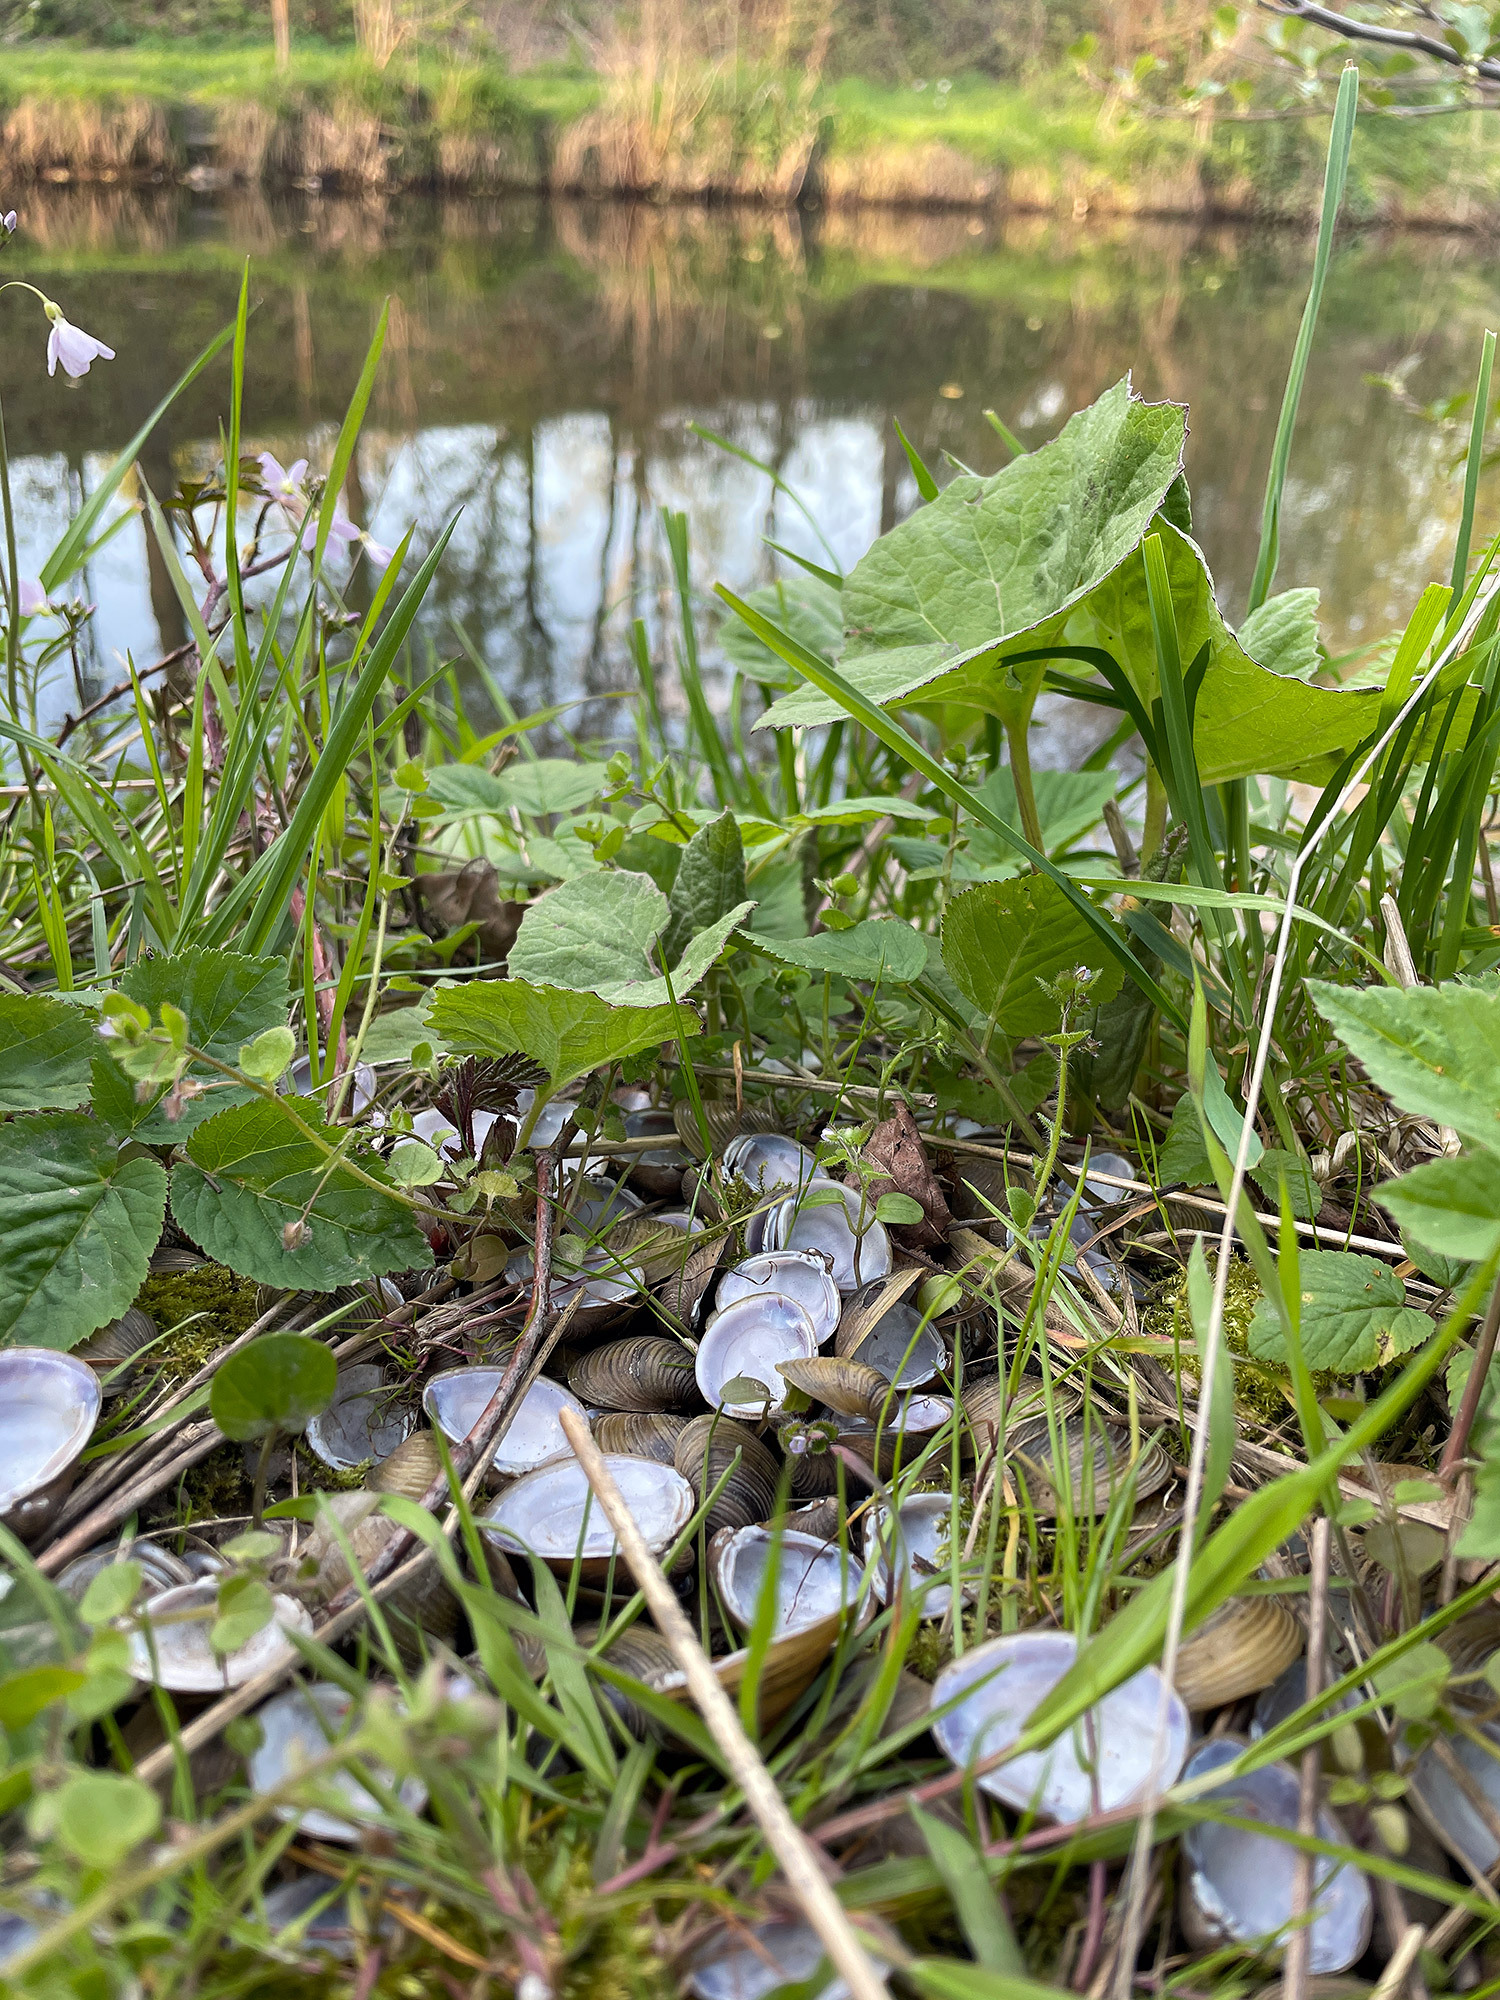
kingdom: Animalia
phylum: Mollusca
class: Bivalvia
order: Venerida
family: Cyrenidae
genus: Corbicula
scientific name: Corbicula fluminea
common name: Asian clam
